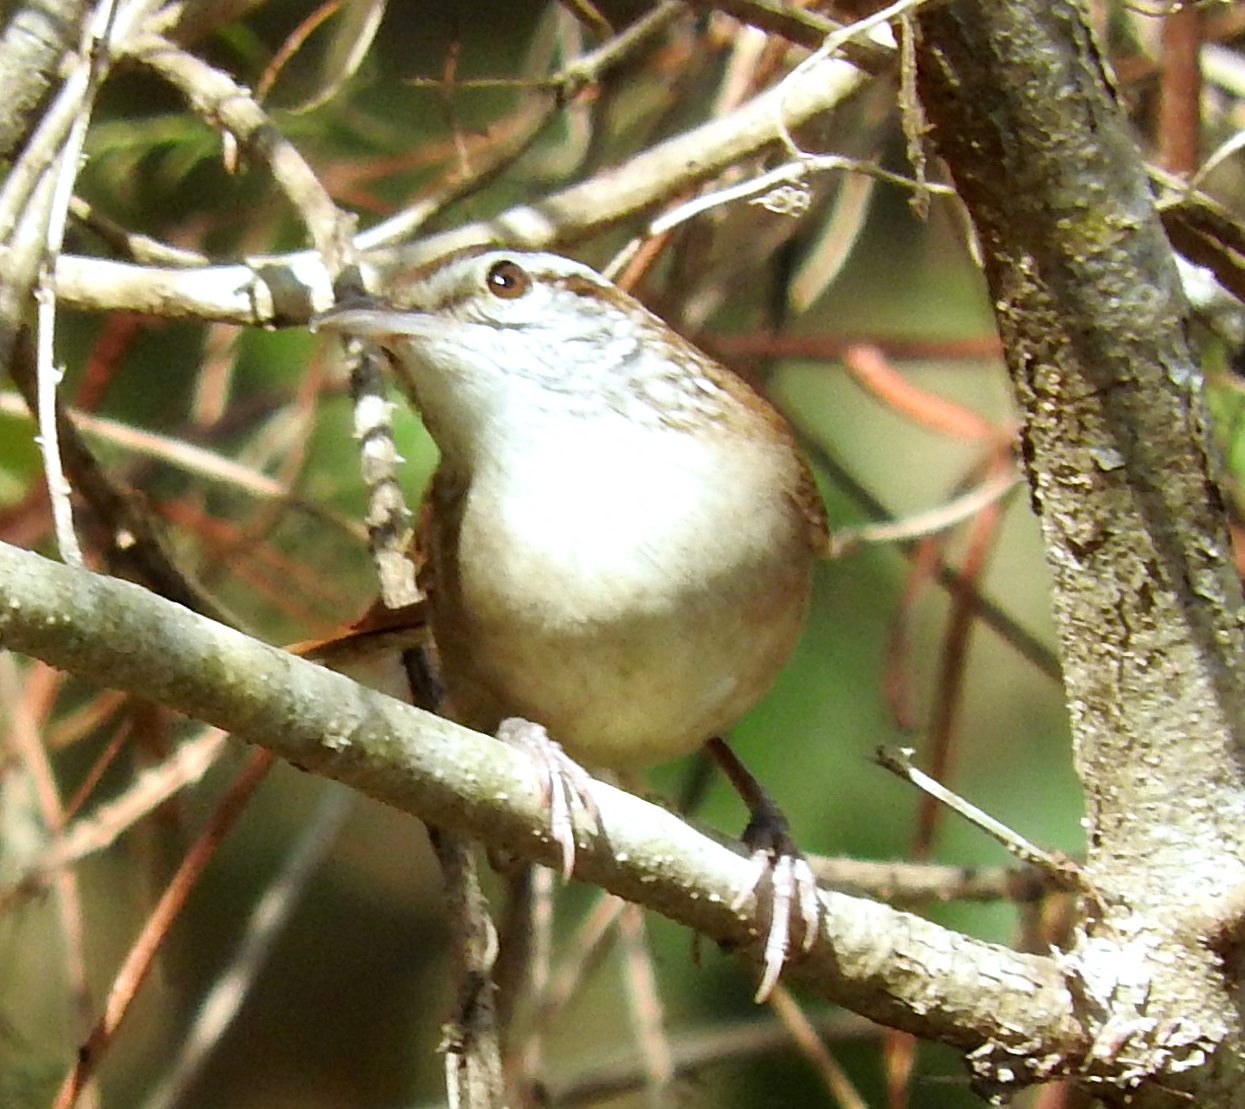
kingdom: Animalia
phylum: Chordata
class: Aves
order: Passeriformes
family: Troglodytidae
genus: Thryophilus
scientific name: Thryophilus sinaloa
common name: Sinaloa wren
